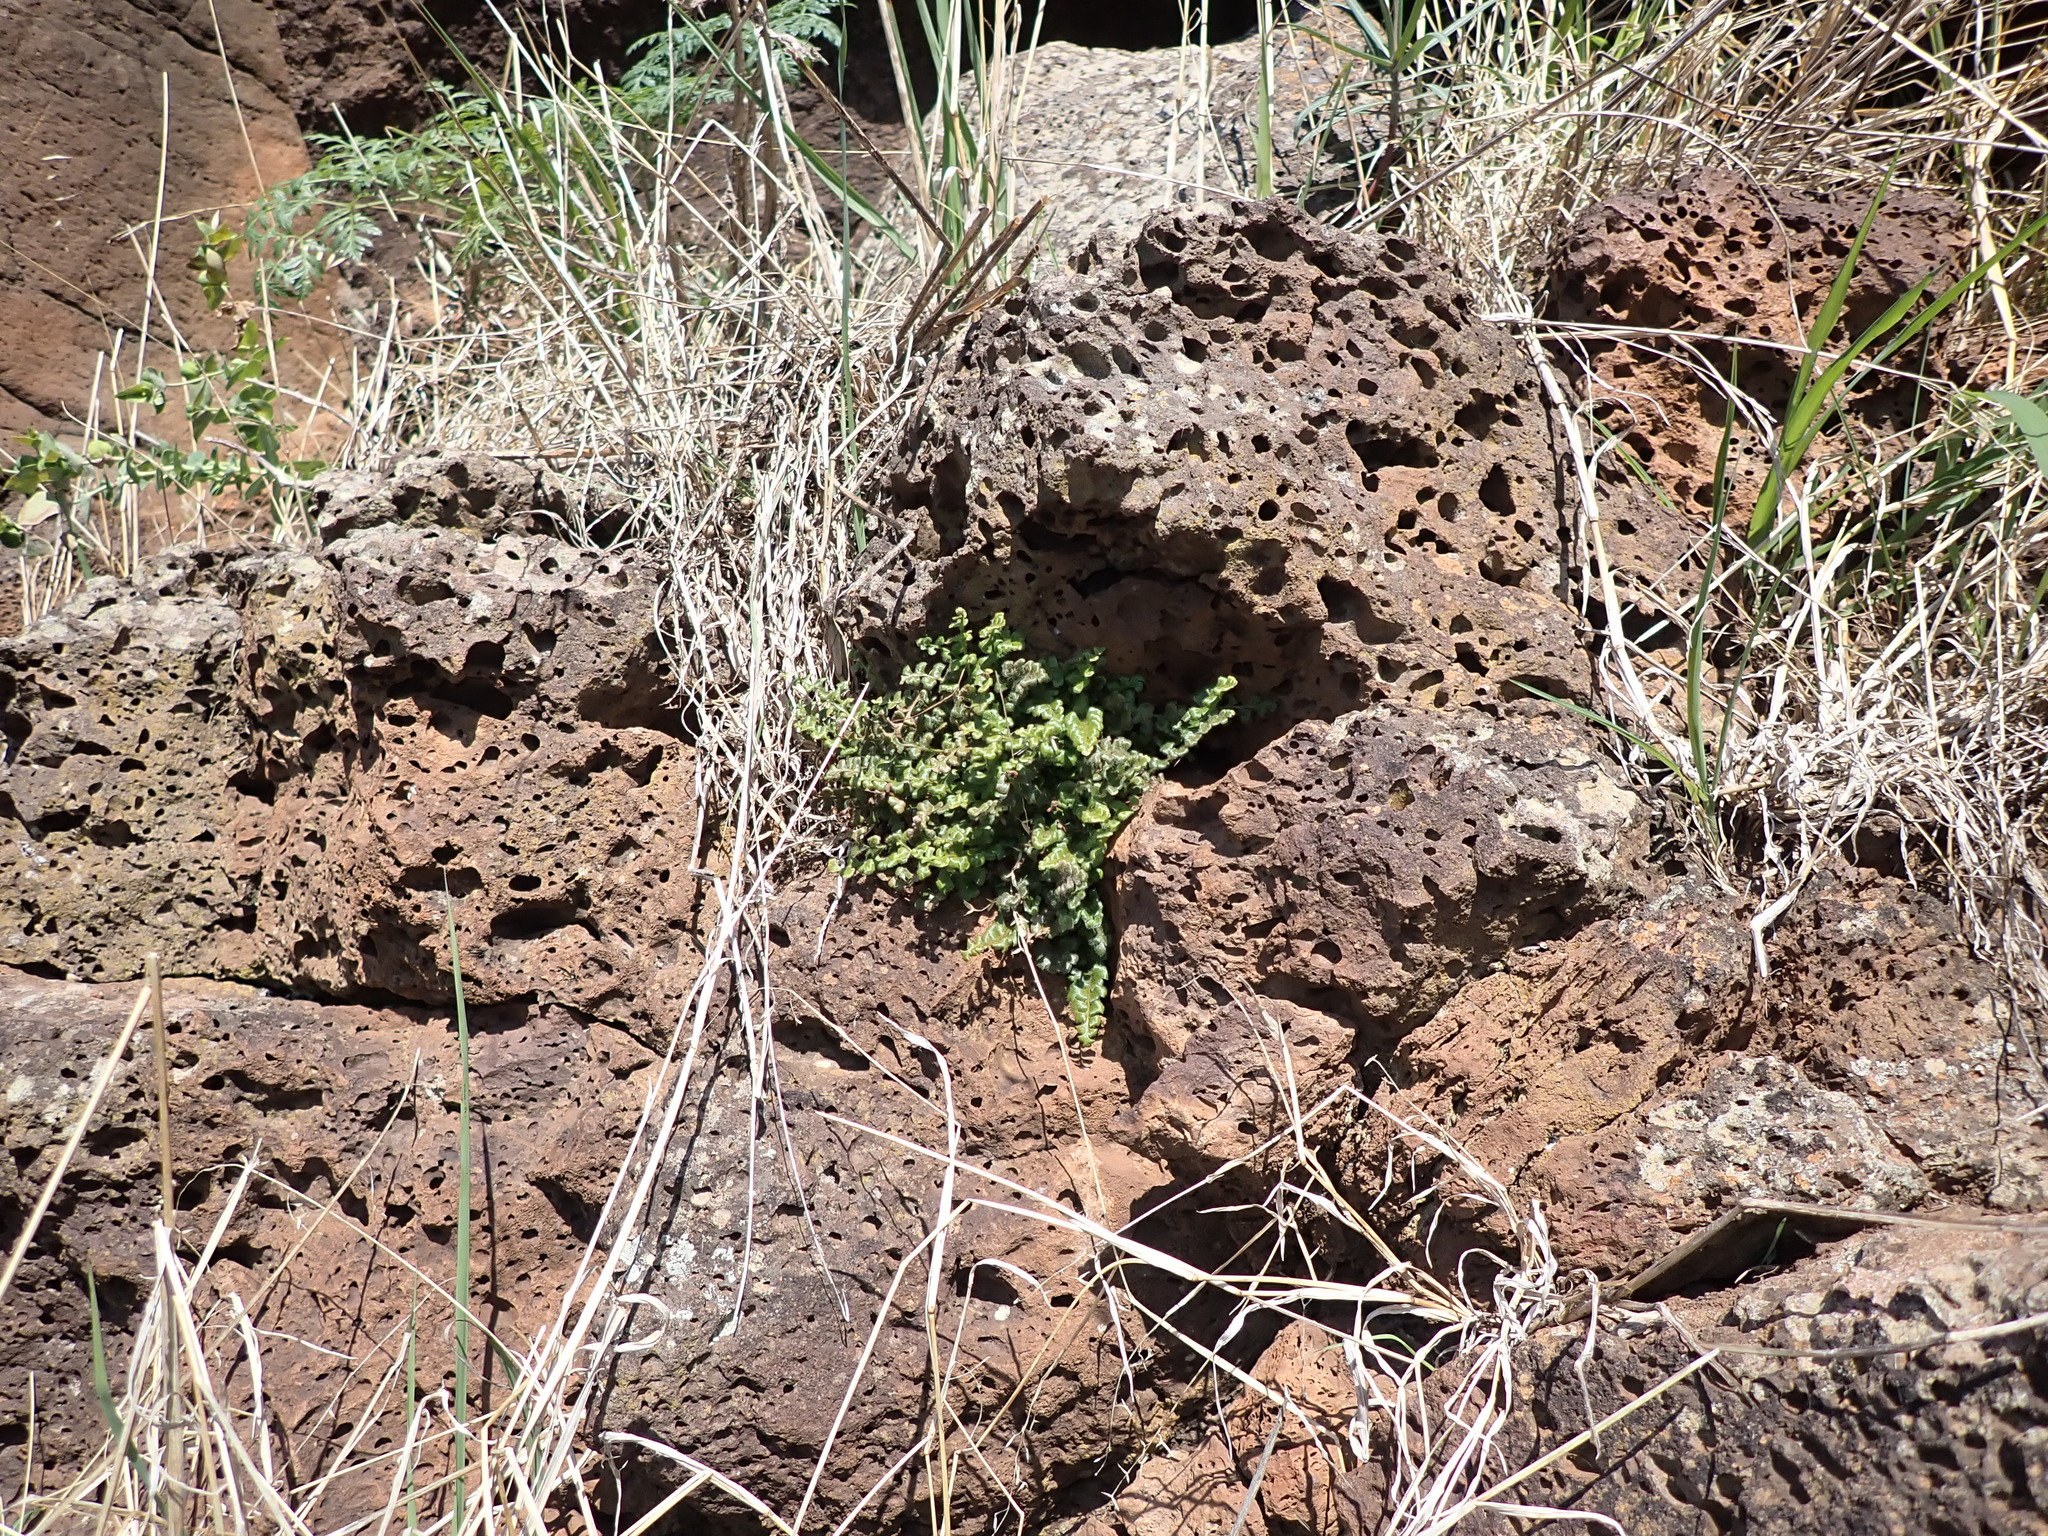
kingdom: Plantae
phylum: Tracheophyta
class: Polypodiopsida
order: Polypodiales
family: Aspleniaceae
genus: Asplenium
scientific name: Asplenium subglandulosum
